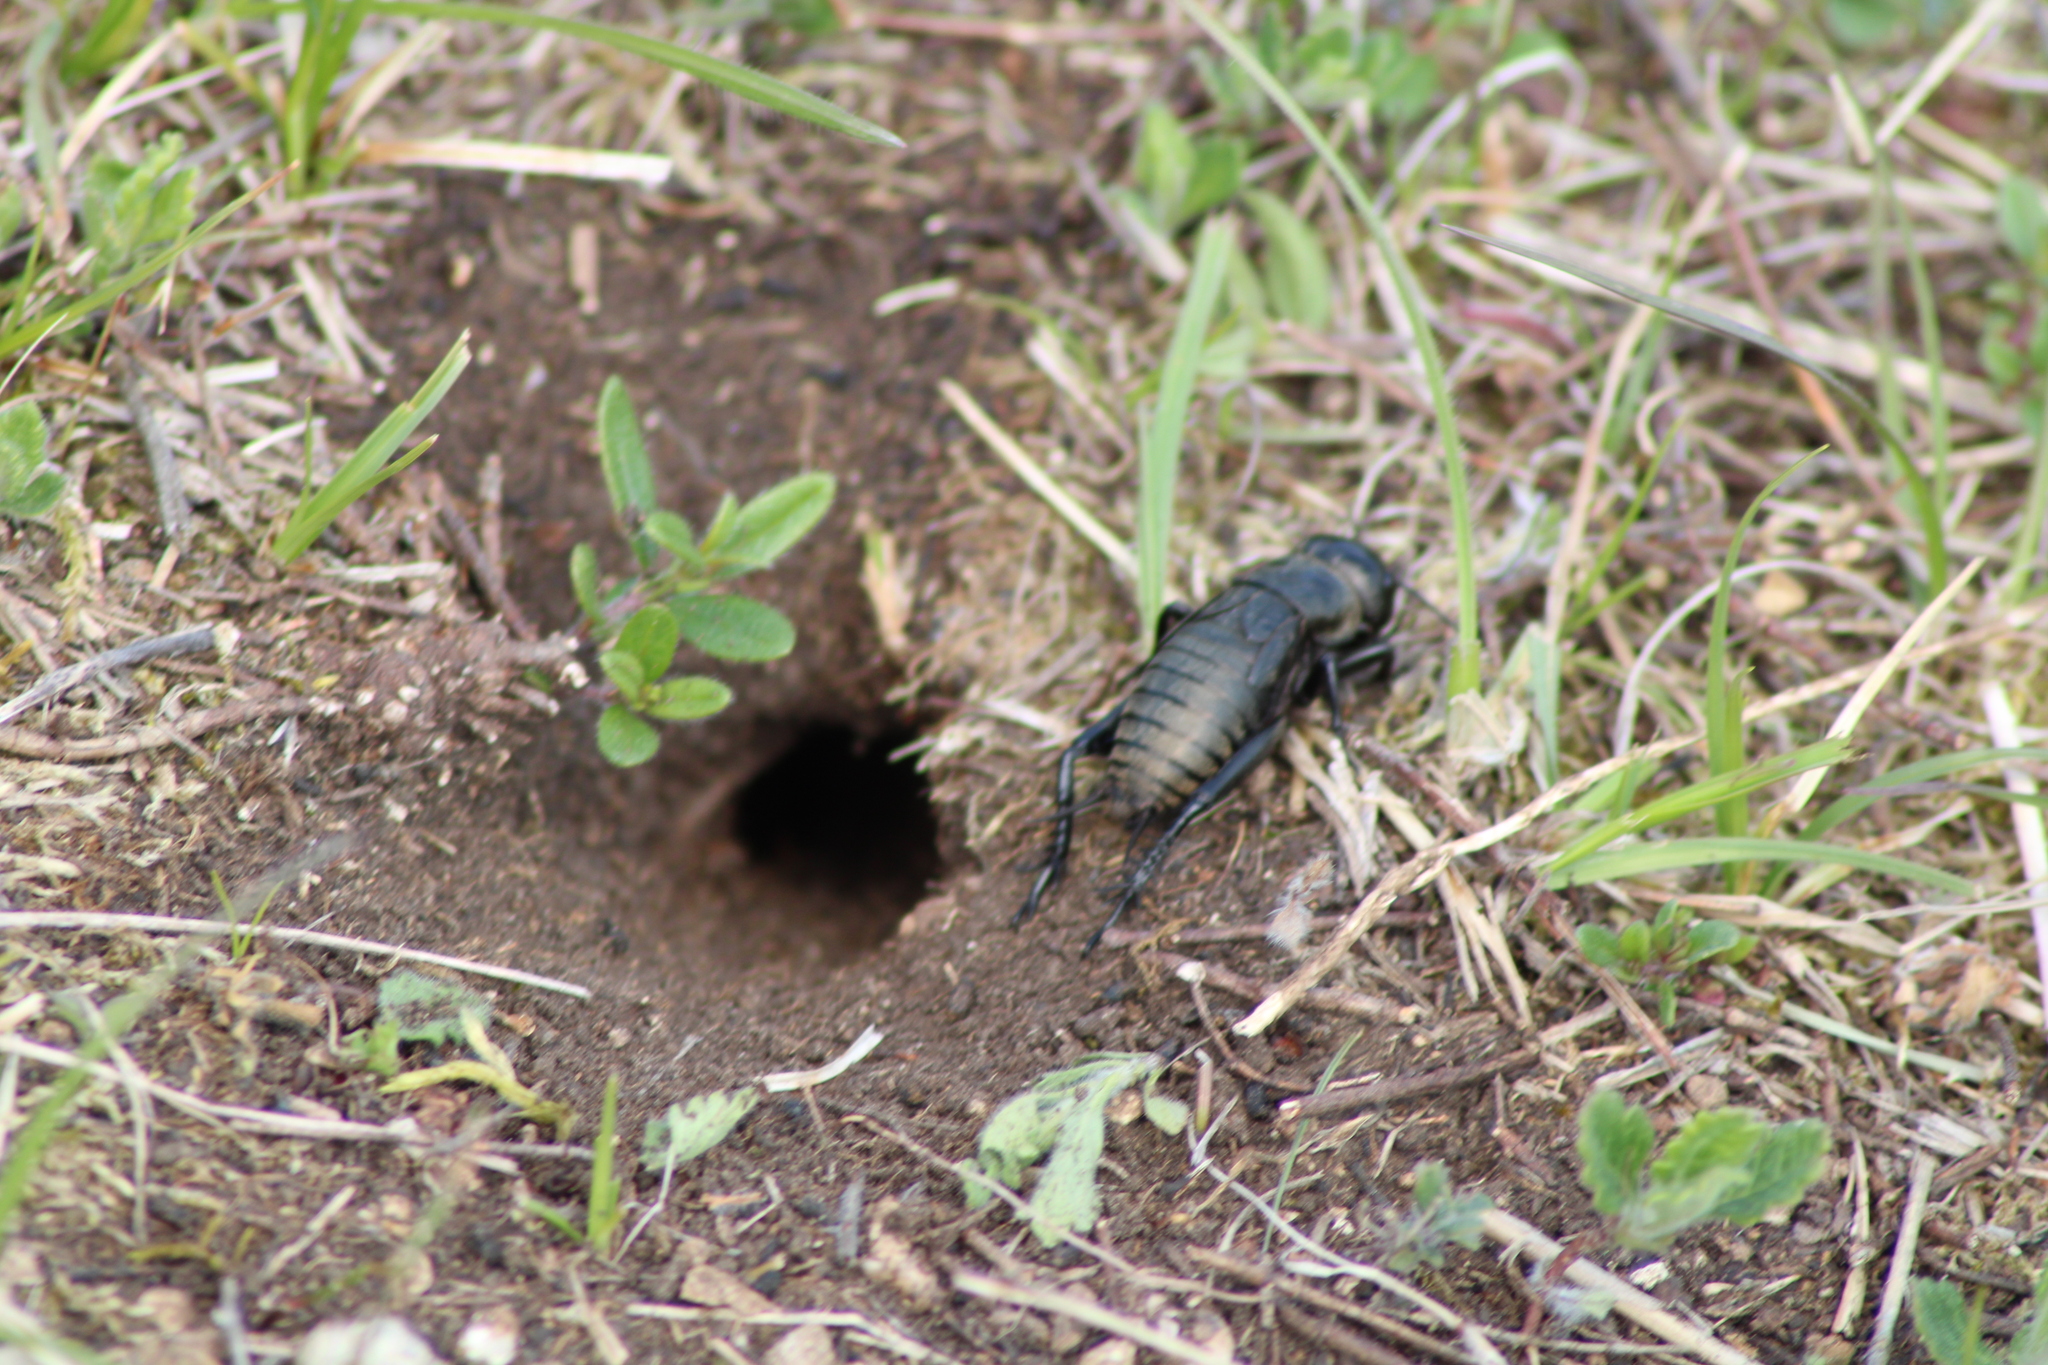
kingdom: Animalia
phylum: Arthropoda
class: Insecta
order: Orthoptera
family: Gryllidae
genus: Gryllus
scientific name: Gryllus campestris
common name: Field cricket
